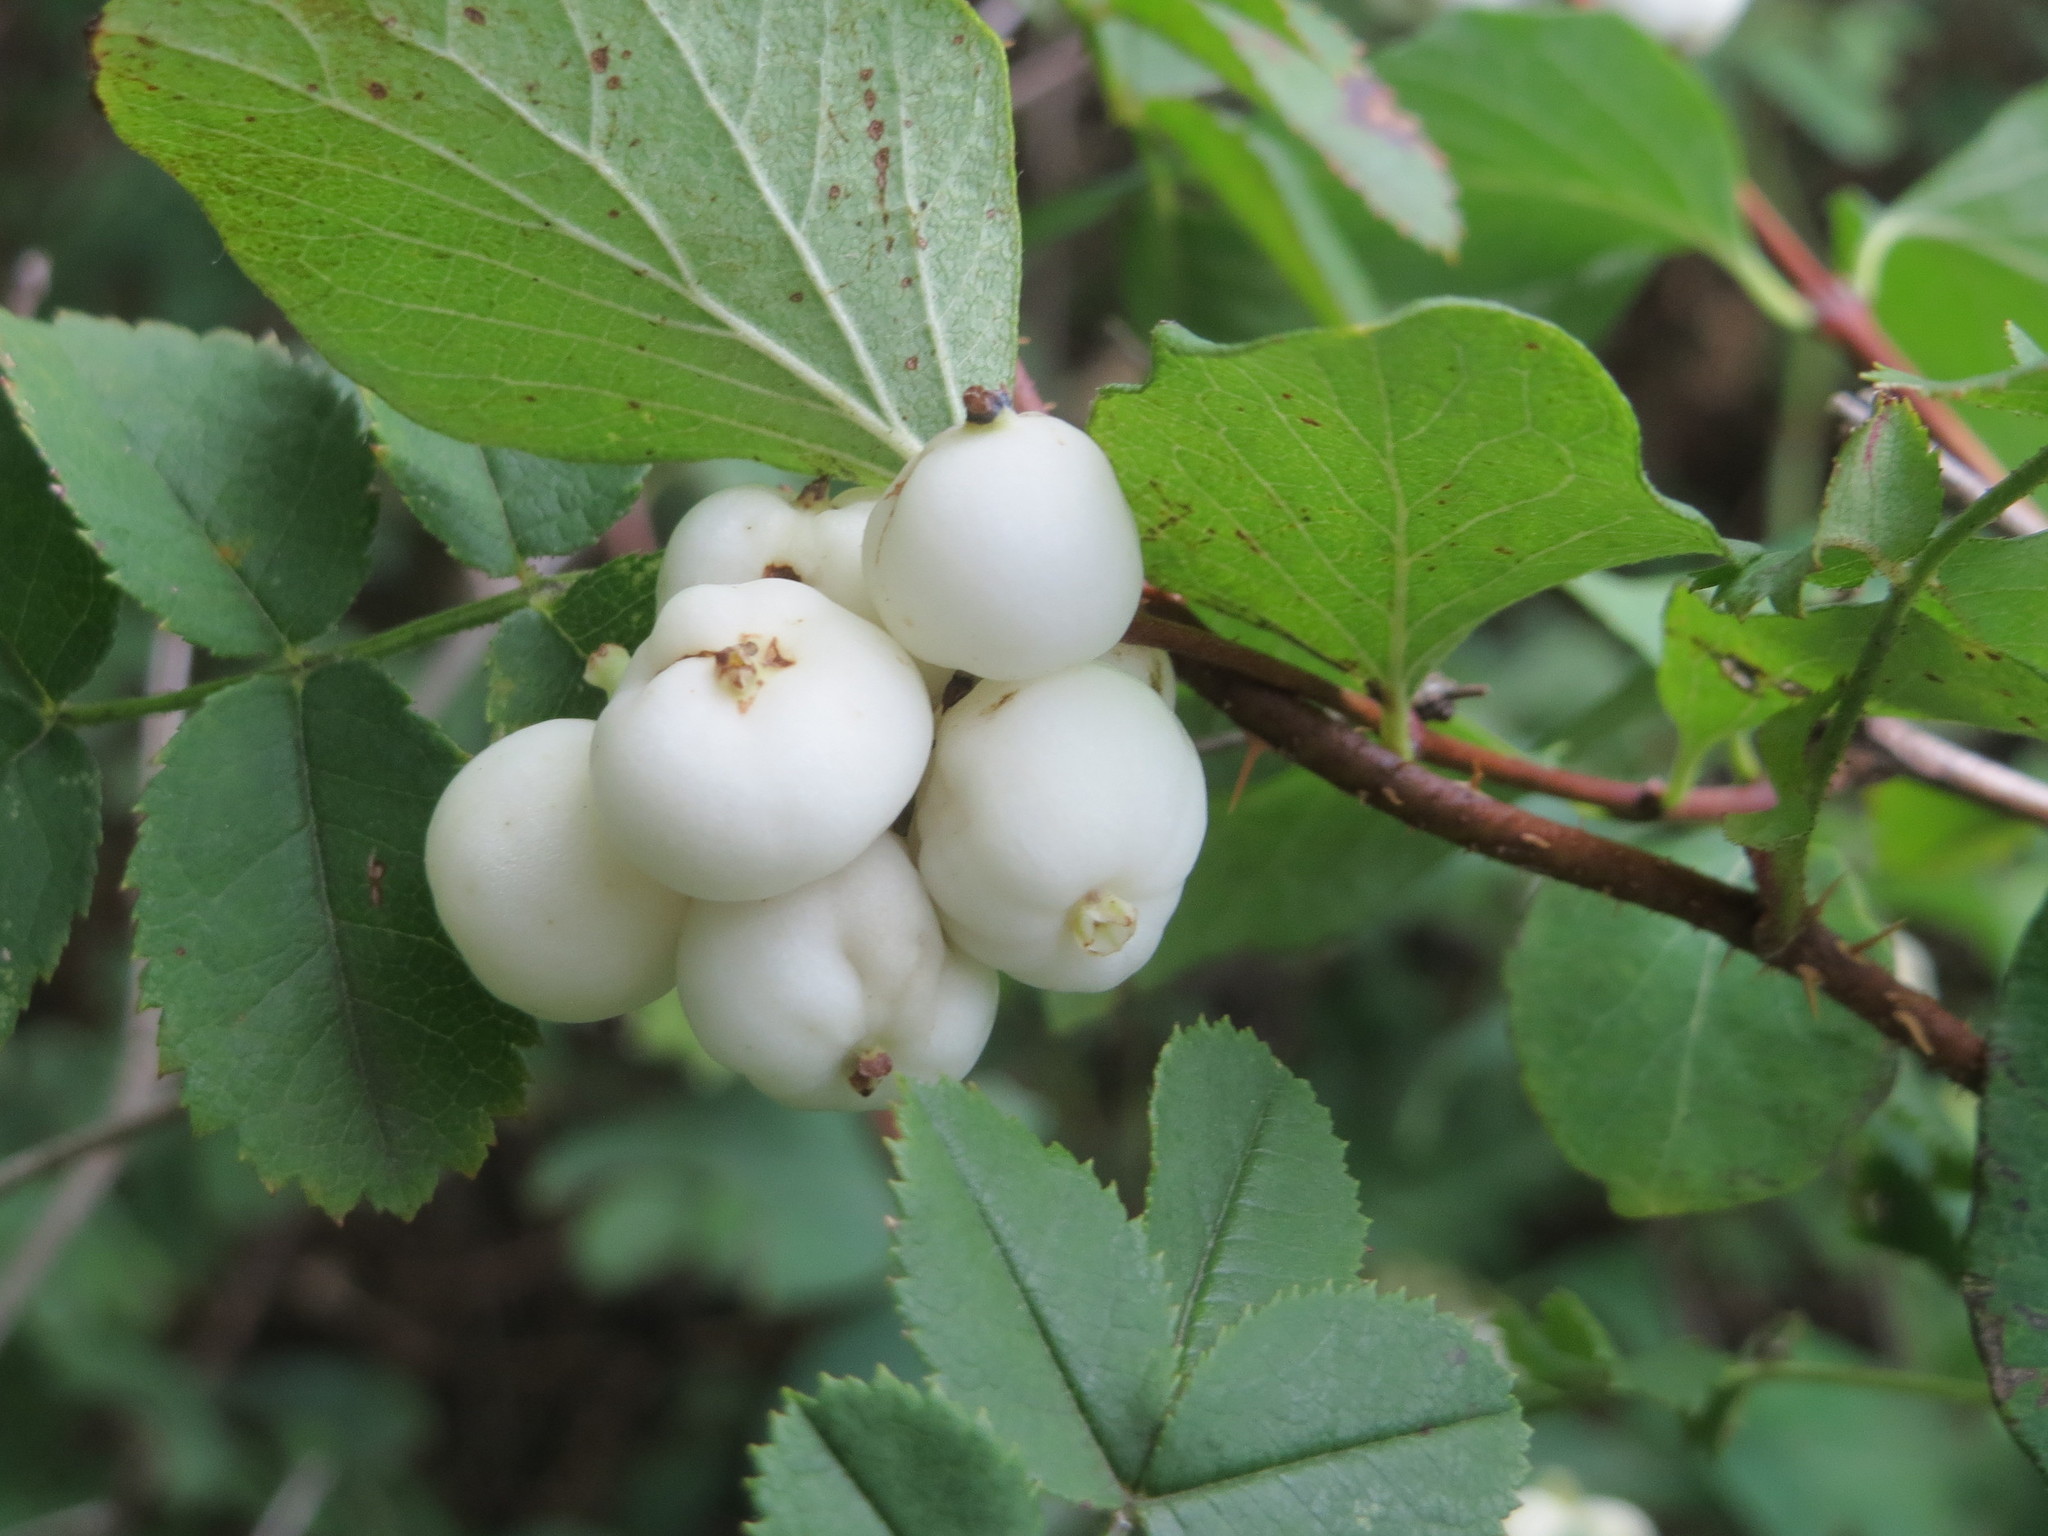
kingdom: Plantae
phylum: Tracheophyta
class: Magnoliopsida
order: Dipsacales
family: Caprifoliaceae
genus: Symphoricarpos
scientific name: Symphoricarpos albus
